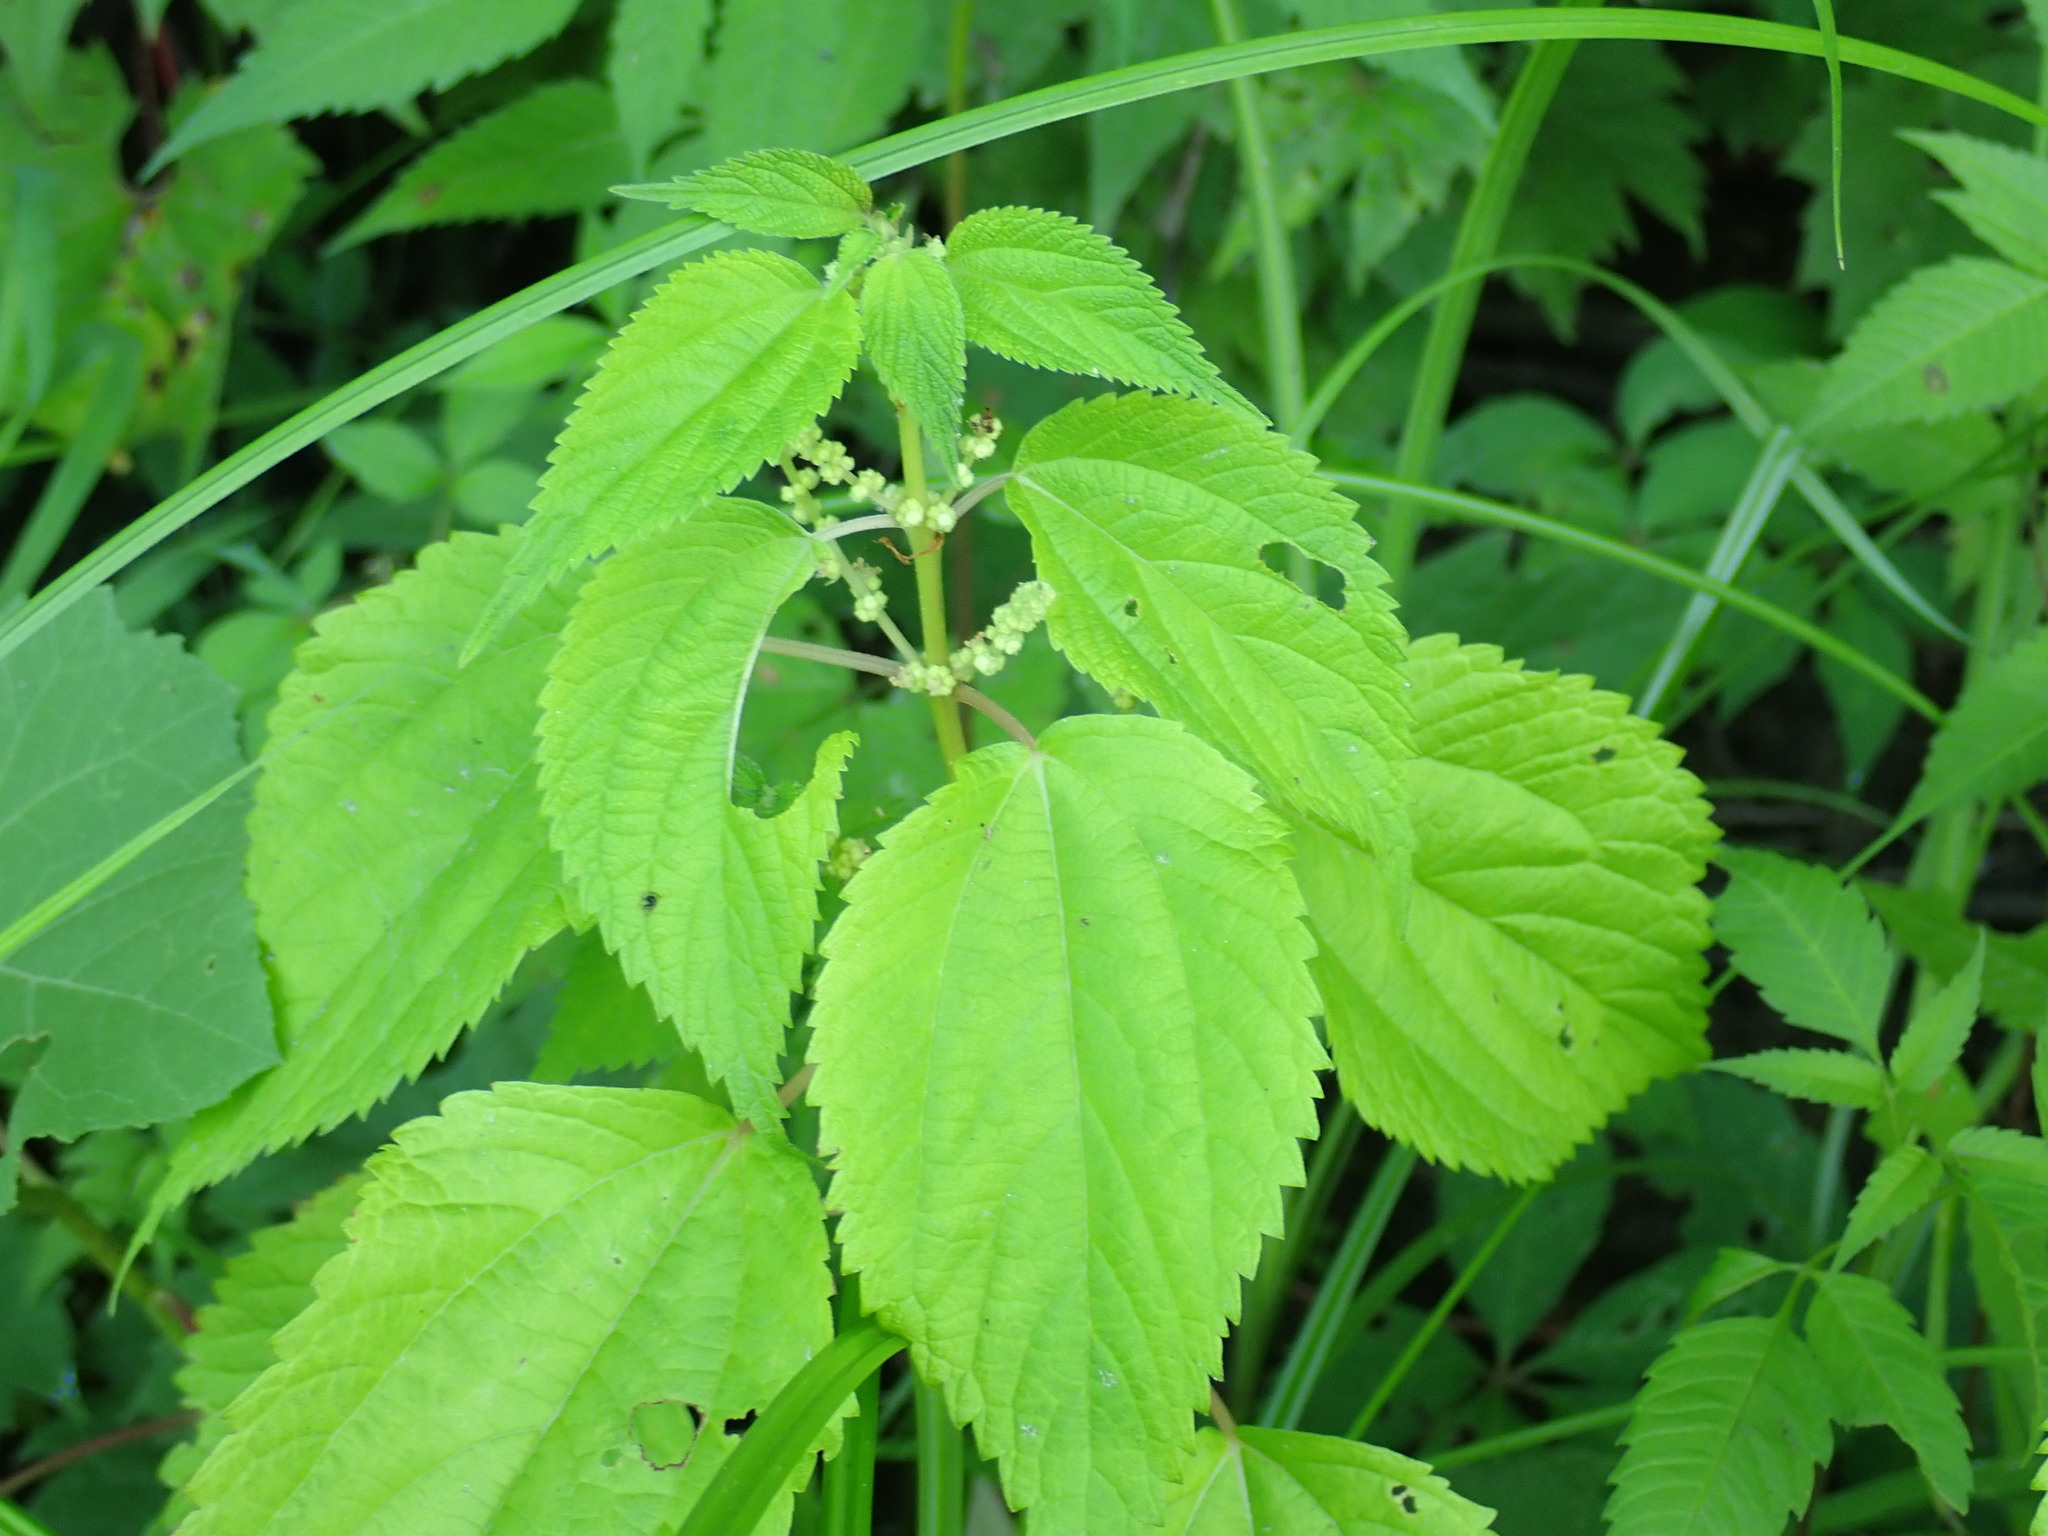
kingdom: Plantae
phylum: Tracheophyta
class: Magnoliopsida
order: Rosales
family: Urticaceae
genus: Boehmeria
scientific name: Boehmeria cylindrica
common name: Bog-hemp
